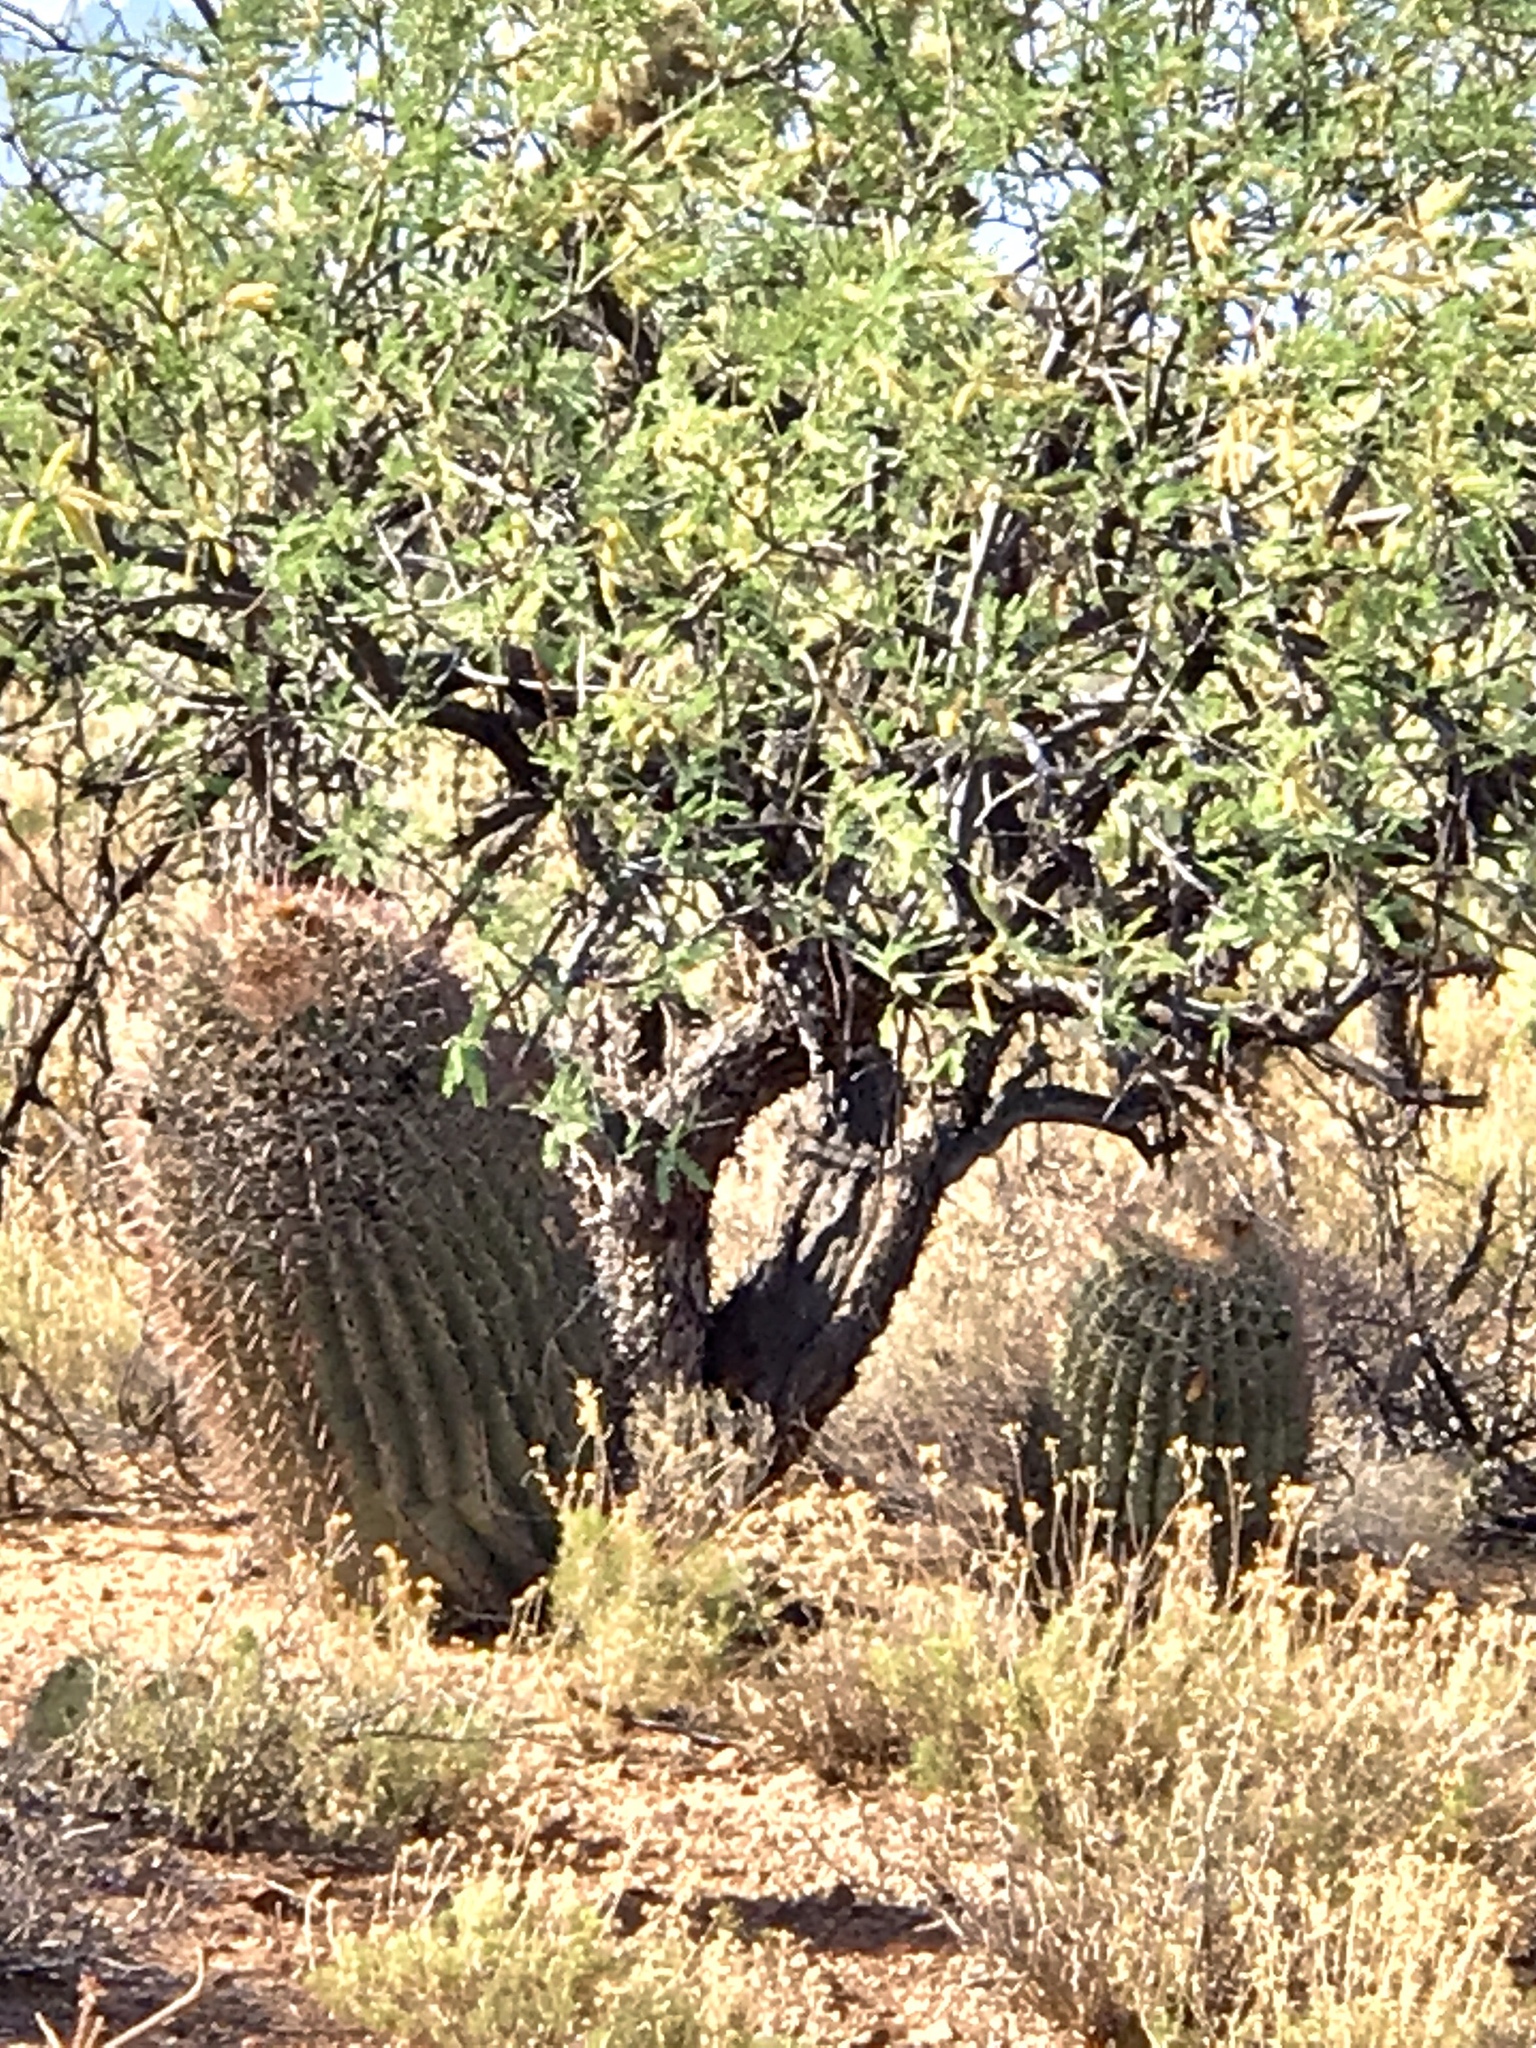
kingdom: Plantae
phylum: Tracheophyta
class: Magnoliopsida
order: Caryophyllales
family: Cactaceae
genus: Ferocactus
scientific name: Ferocactus wislizeni
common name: Candy barrel cactus
